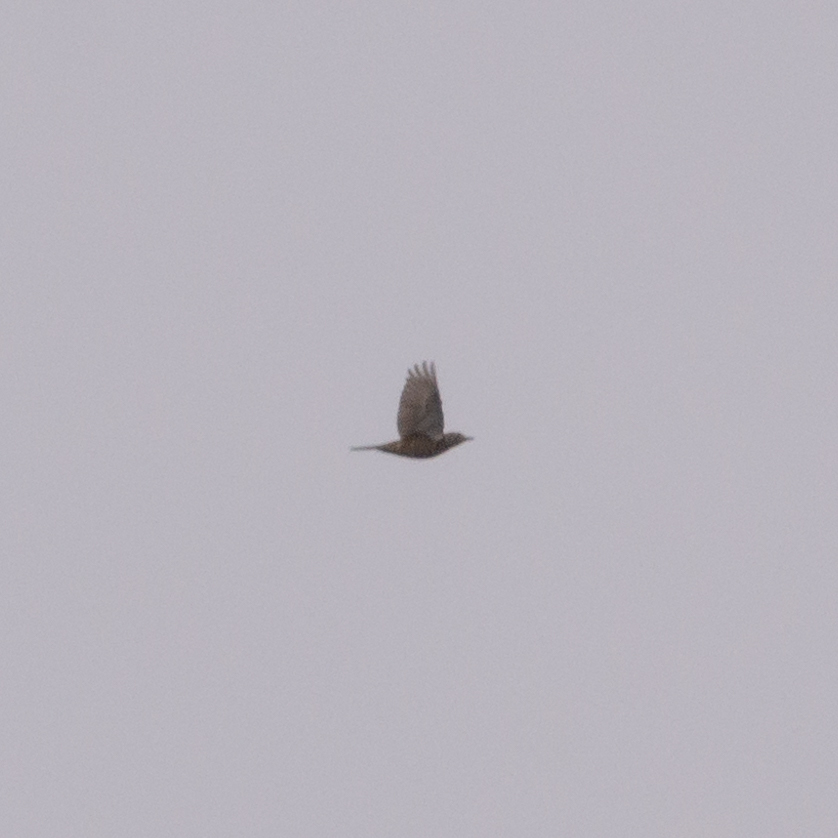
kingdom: Animalia
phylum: Chordata
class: Aves
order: Passeriformes
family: Turdidae
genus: Turdus
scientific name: Turdus viscivorus
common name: Mistle thrush
